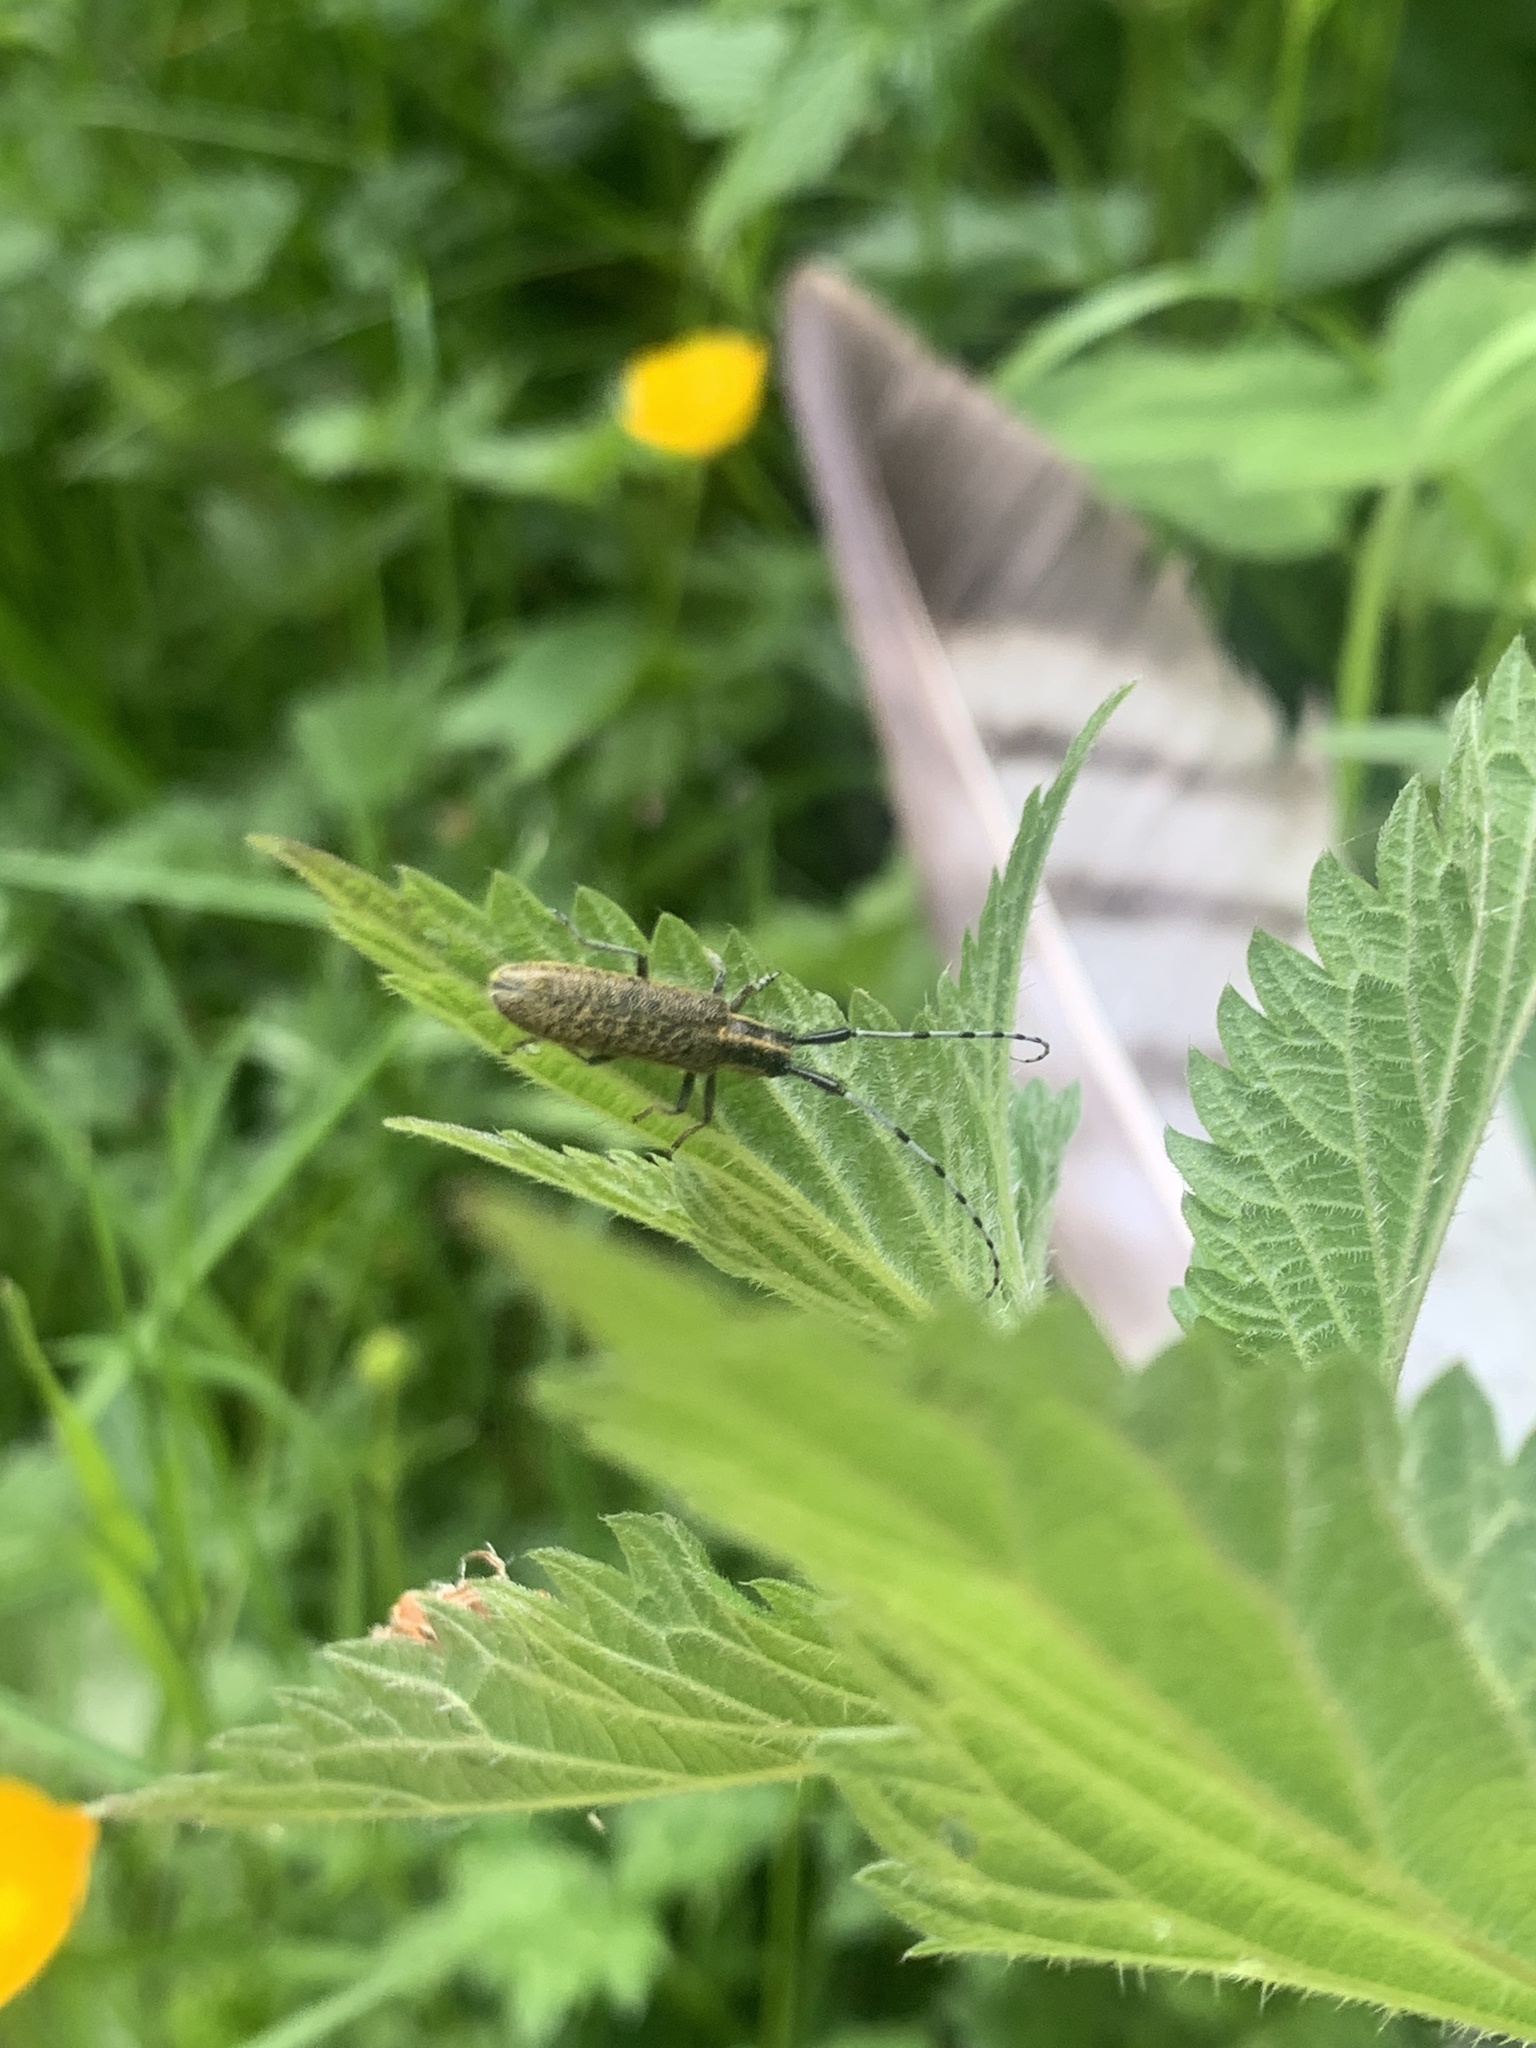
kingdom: Animalia
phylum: Arthropoda
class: Insecta
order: Coleoptera
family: Cerambycidae
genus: Agapanthia
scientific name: Agapanthia villosoviridescens
